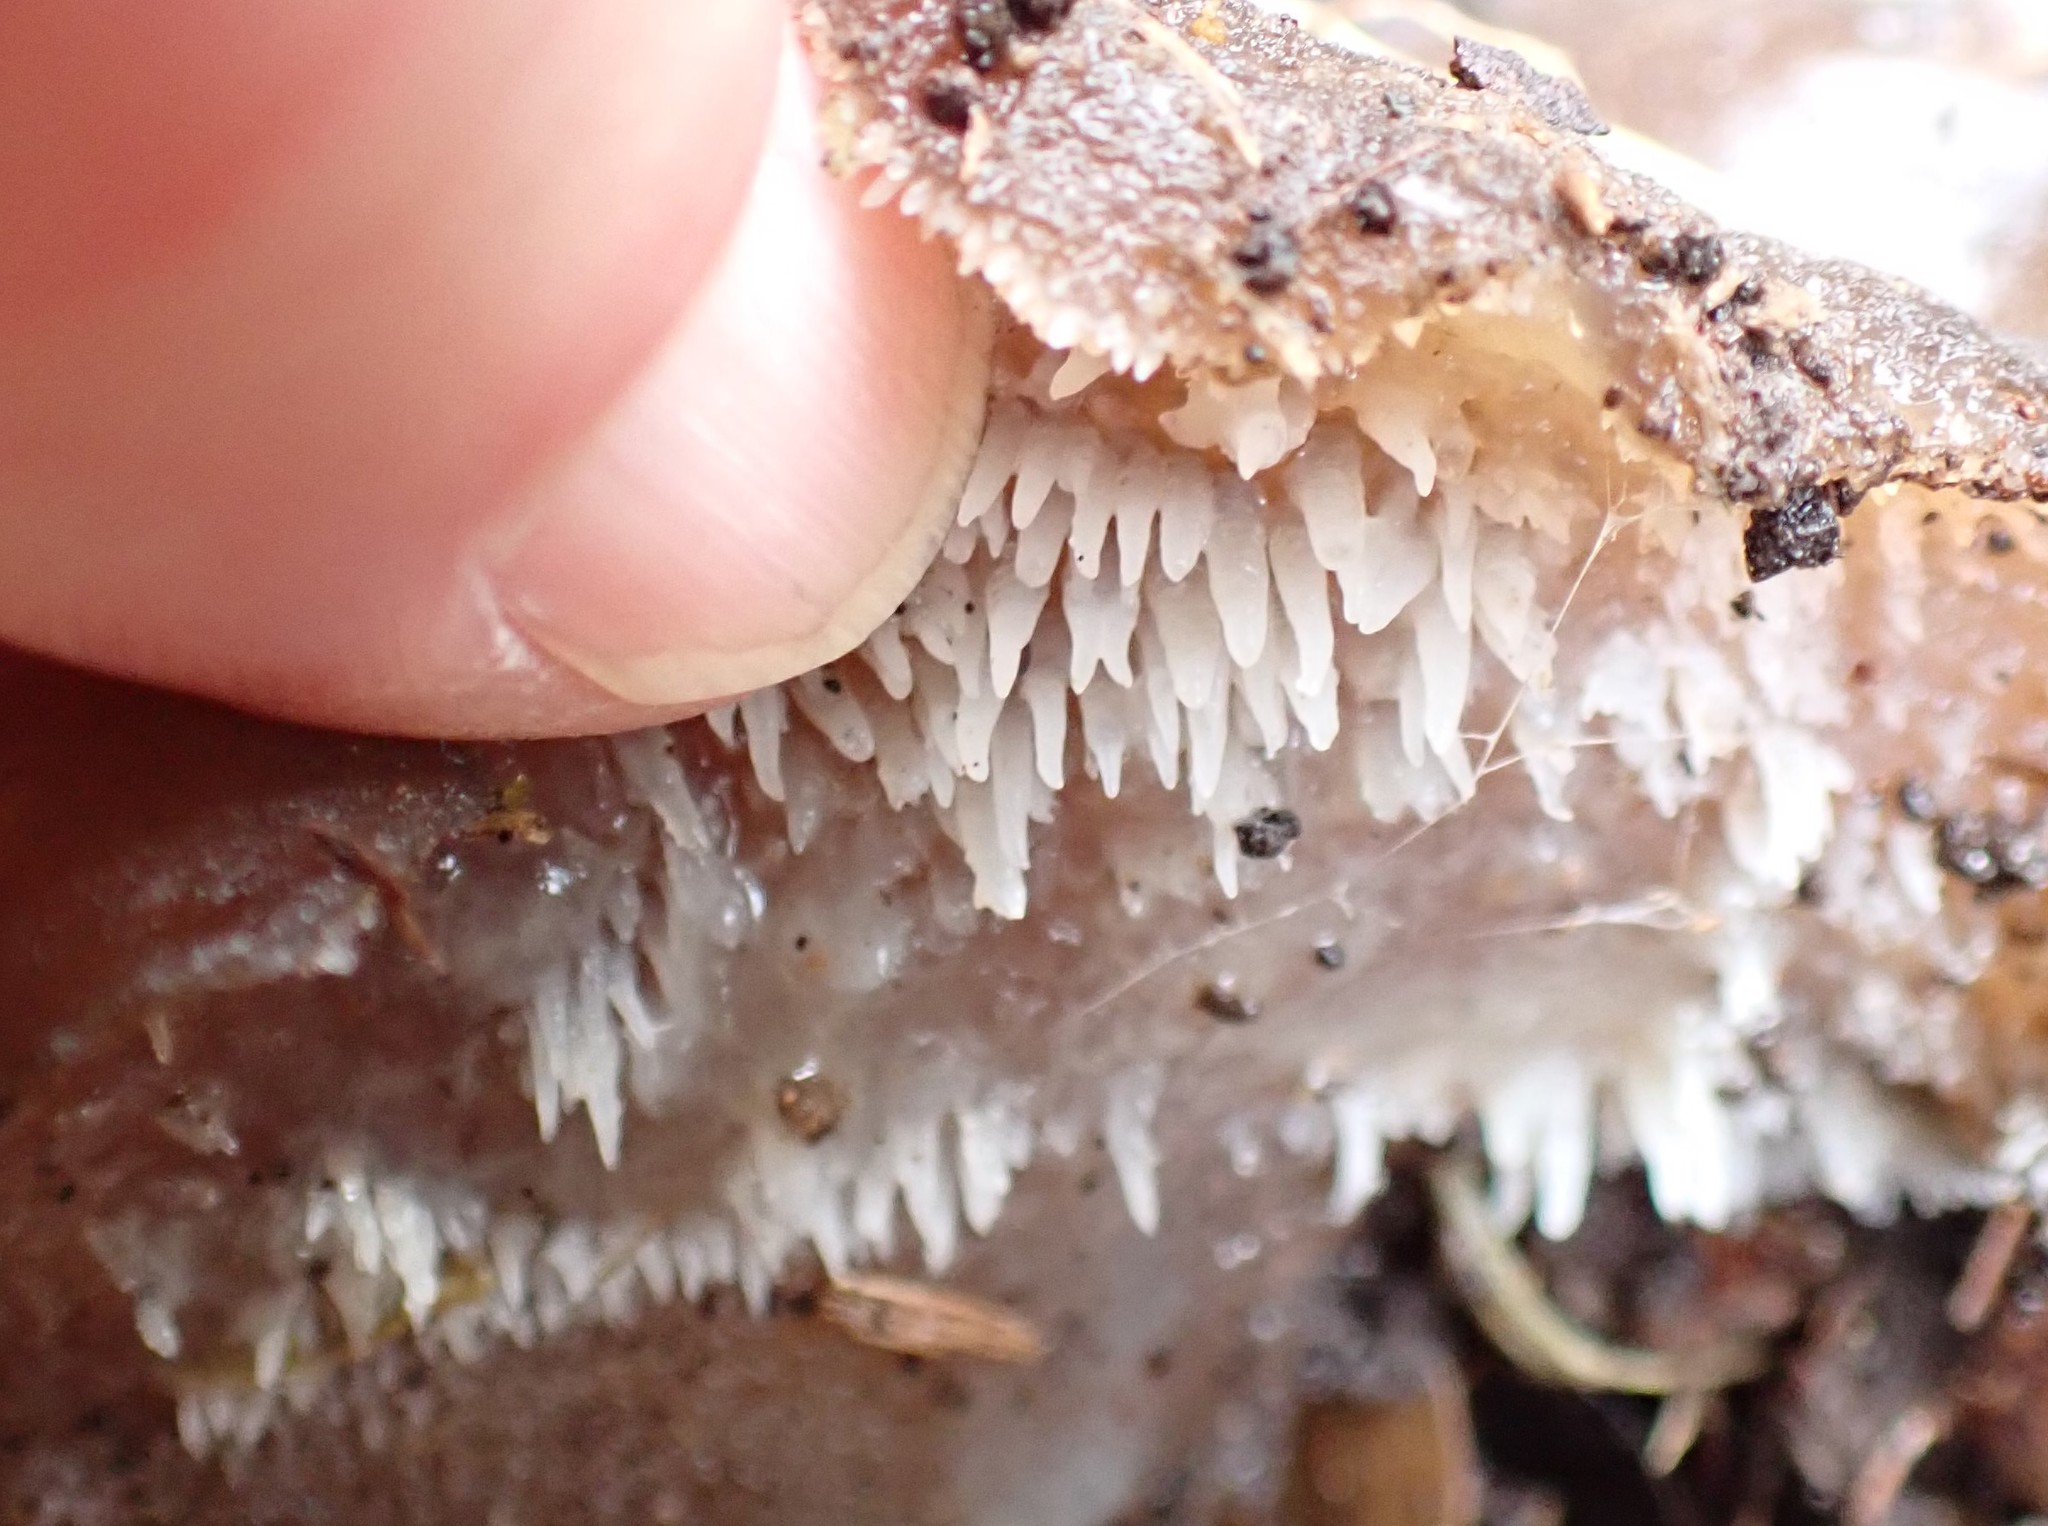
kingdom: Fungi
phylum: Basidiomycota
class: Agaricomycetes
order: Auriculariales
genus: Pseudohydnum
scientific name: Pseudohydnum gelatinosum
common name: Jelly tongue
